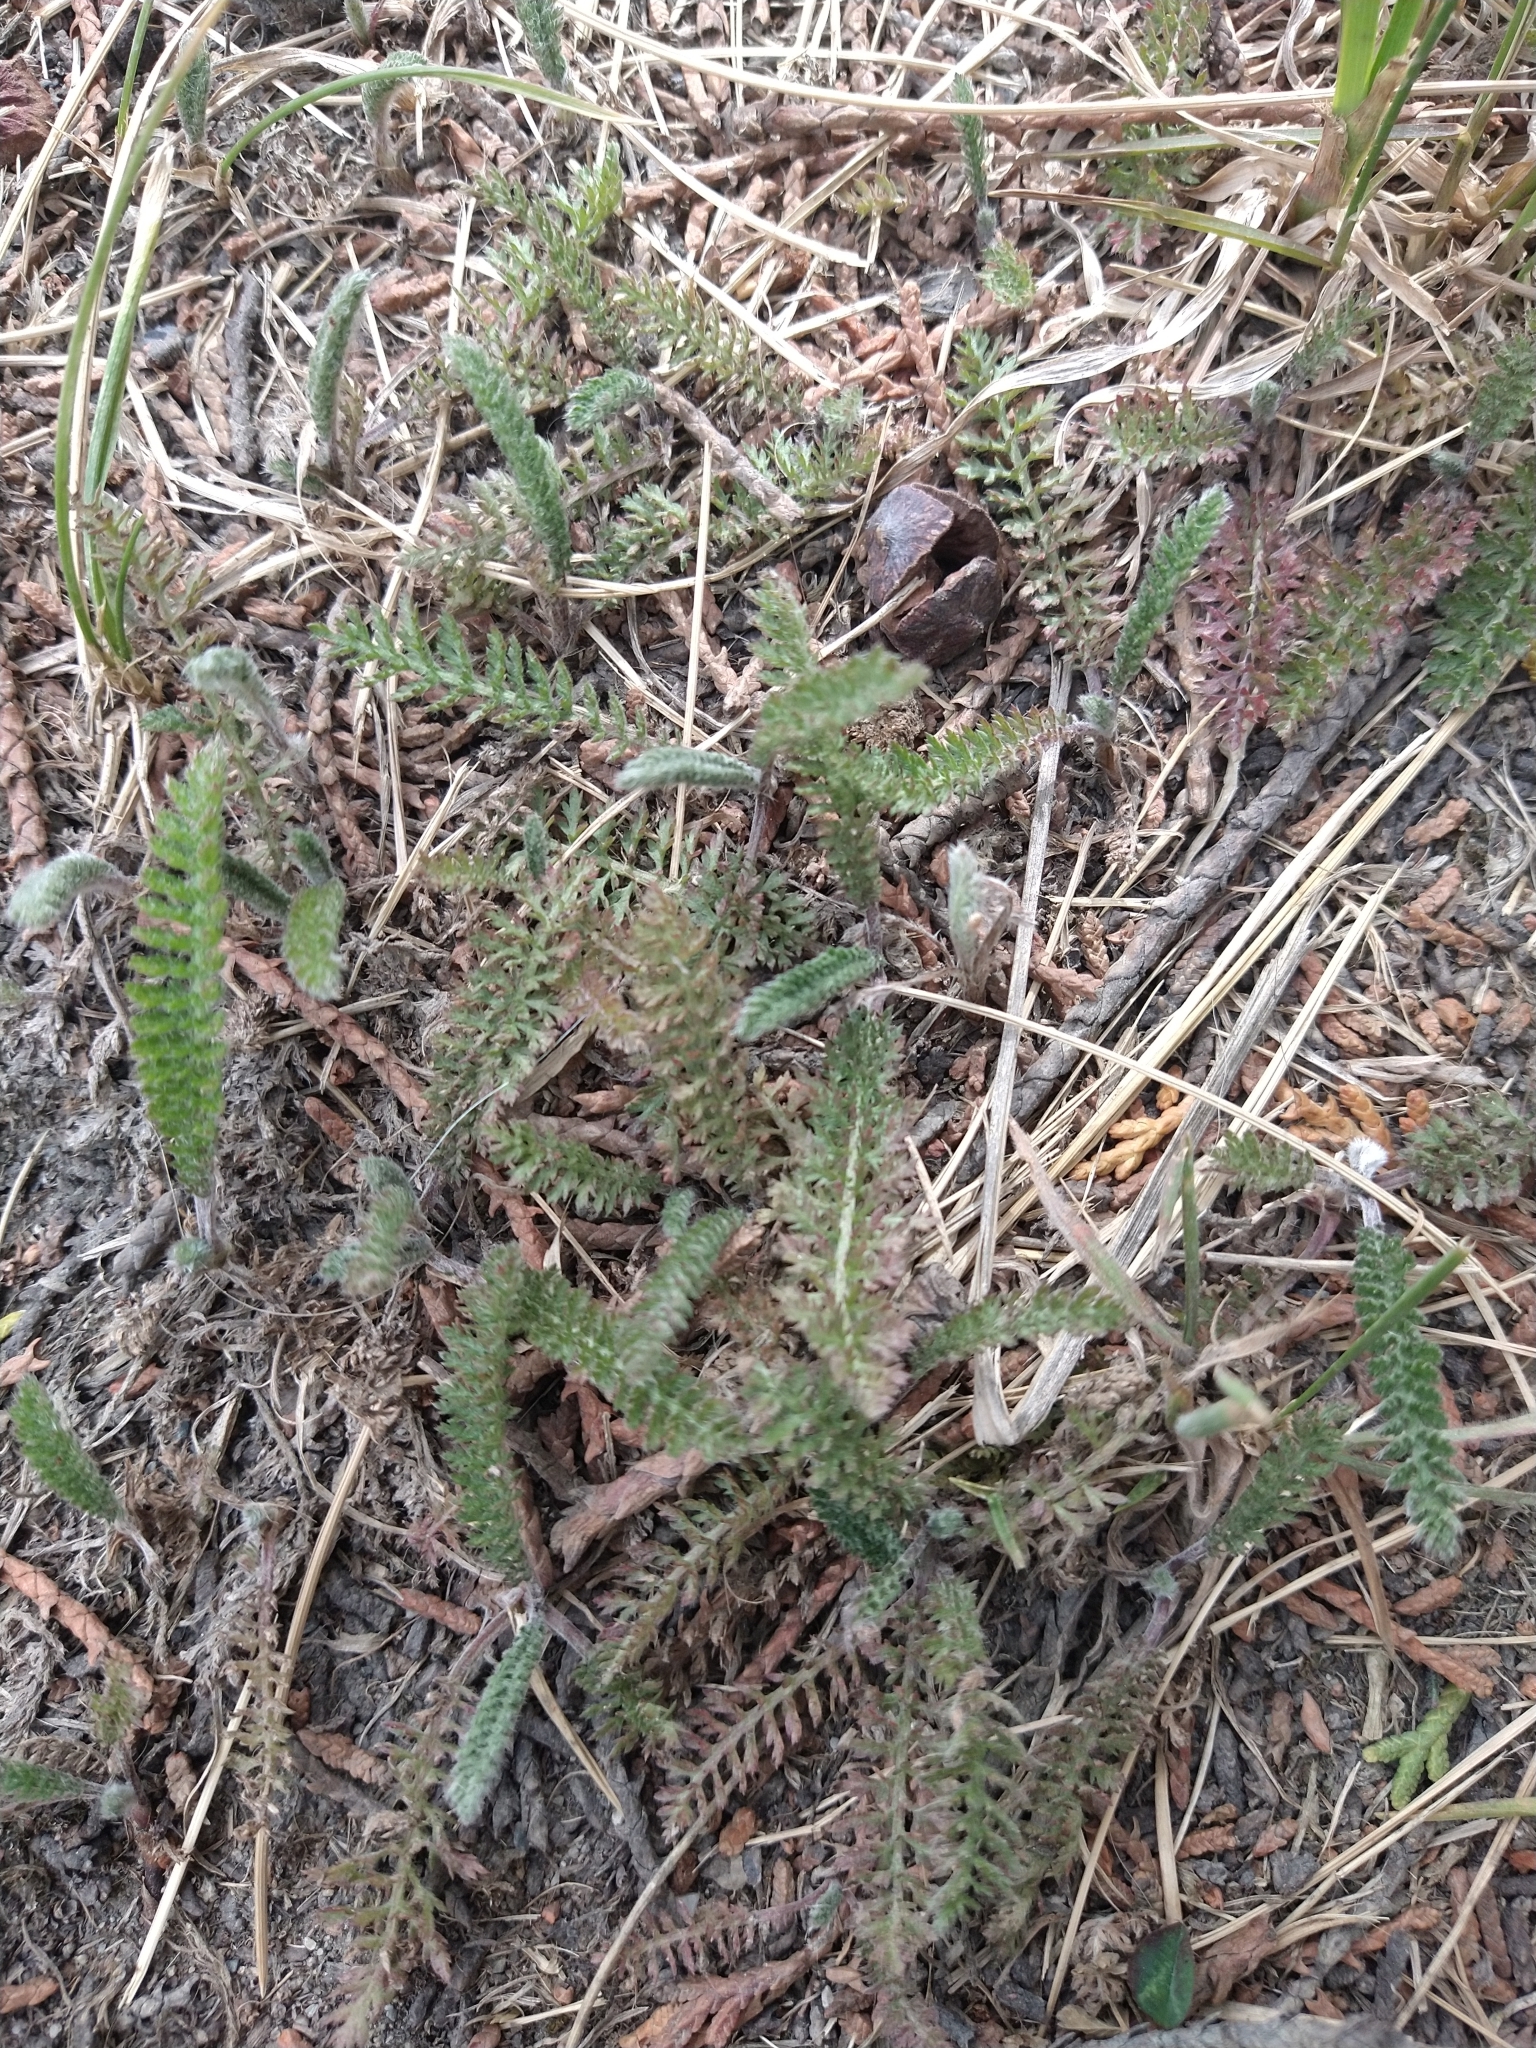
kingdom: Plantae
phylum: Tracheophyta
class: Magnoliopsida
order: Asterales
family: Asteraceae
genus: Achillea
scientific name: Achillea millefolium
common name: Yarrow
